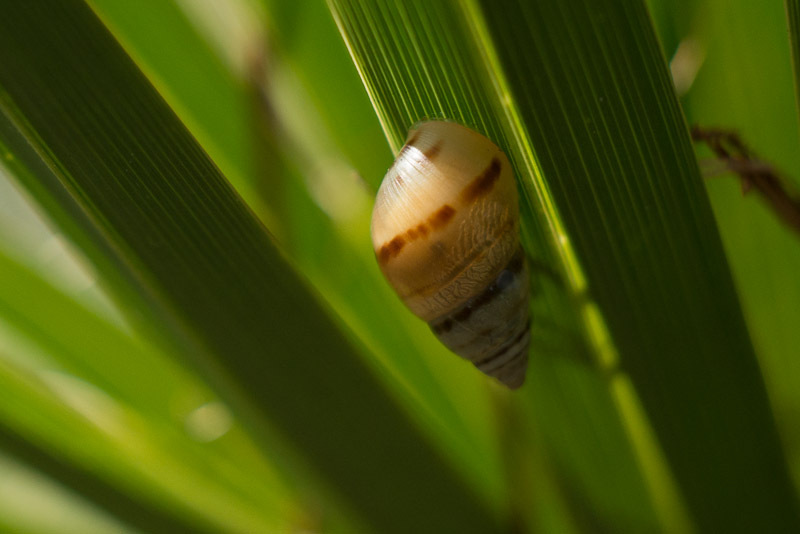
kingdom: Animalia
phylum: Mollusca
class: Gastropoda
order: Stylommatophora
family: Bulimulidae
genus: Drymaeus
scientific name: Drymaeus
